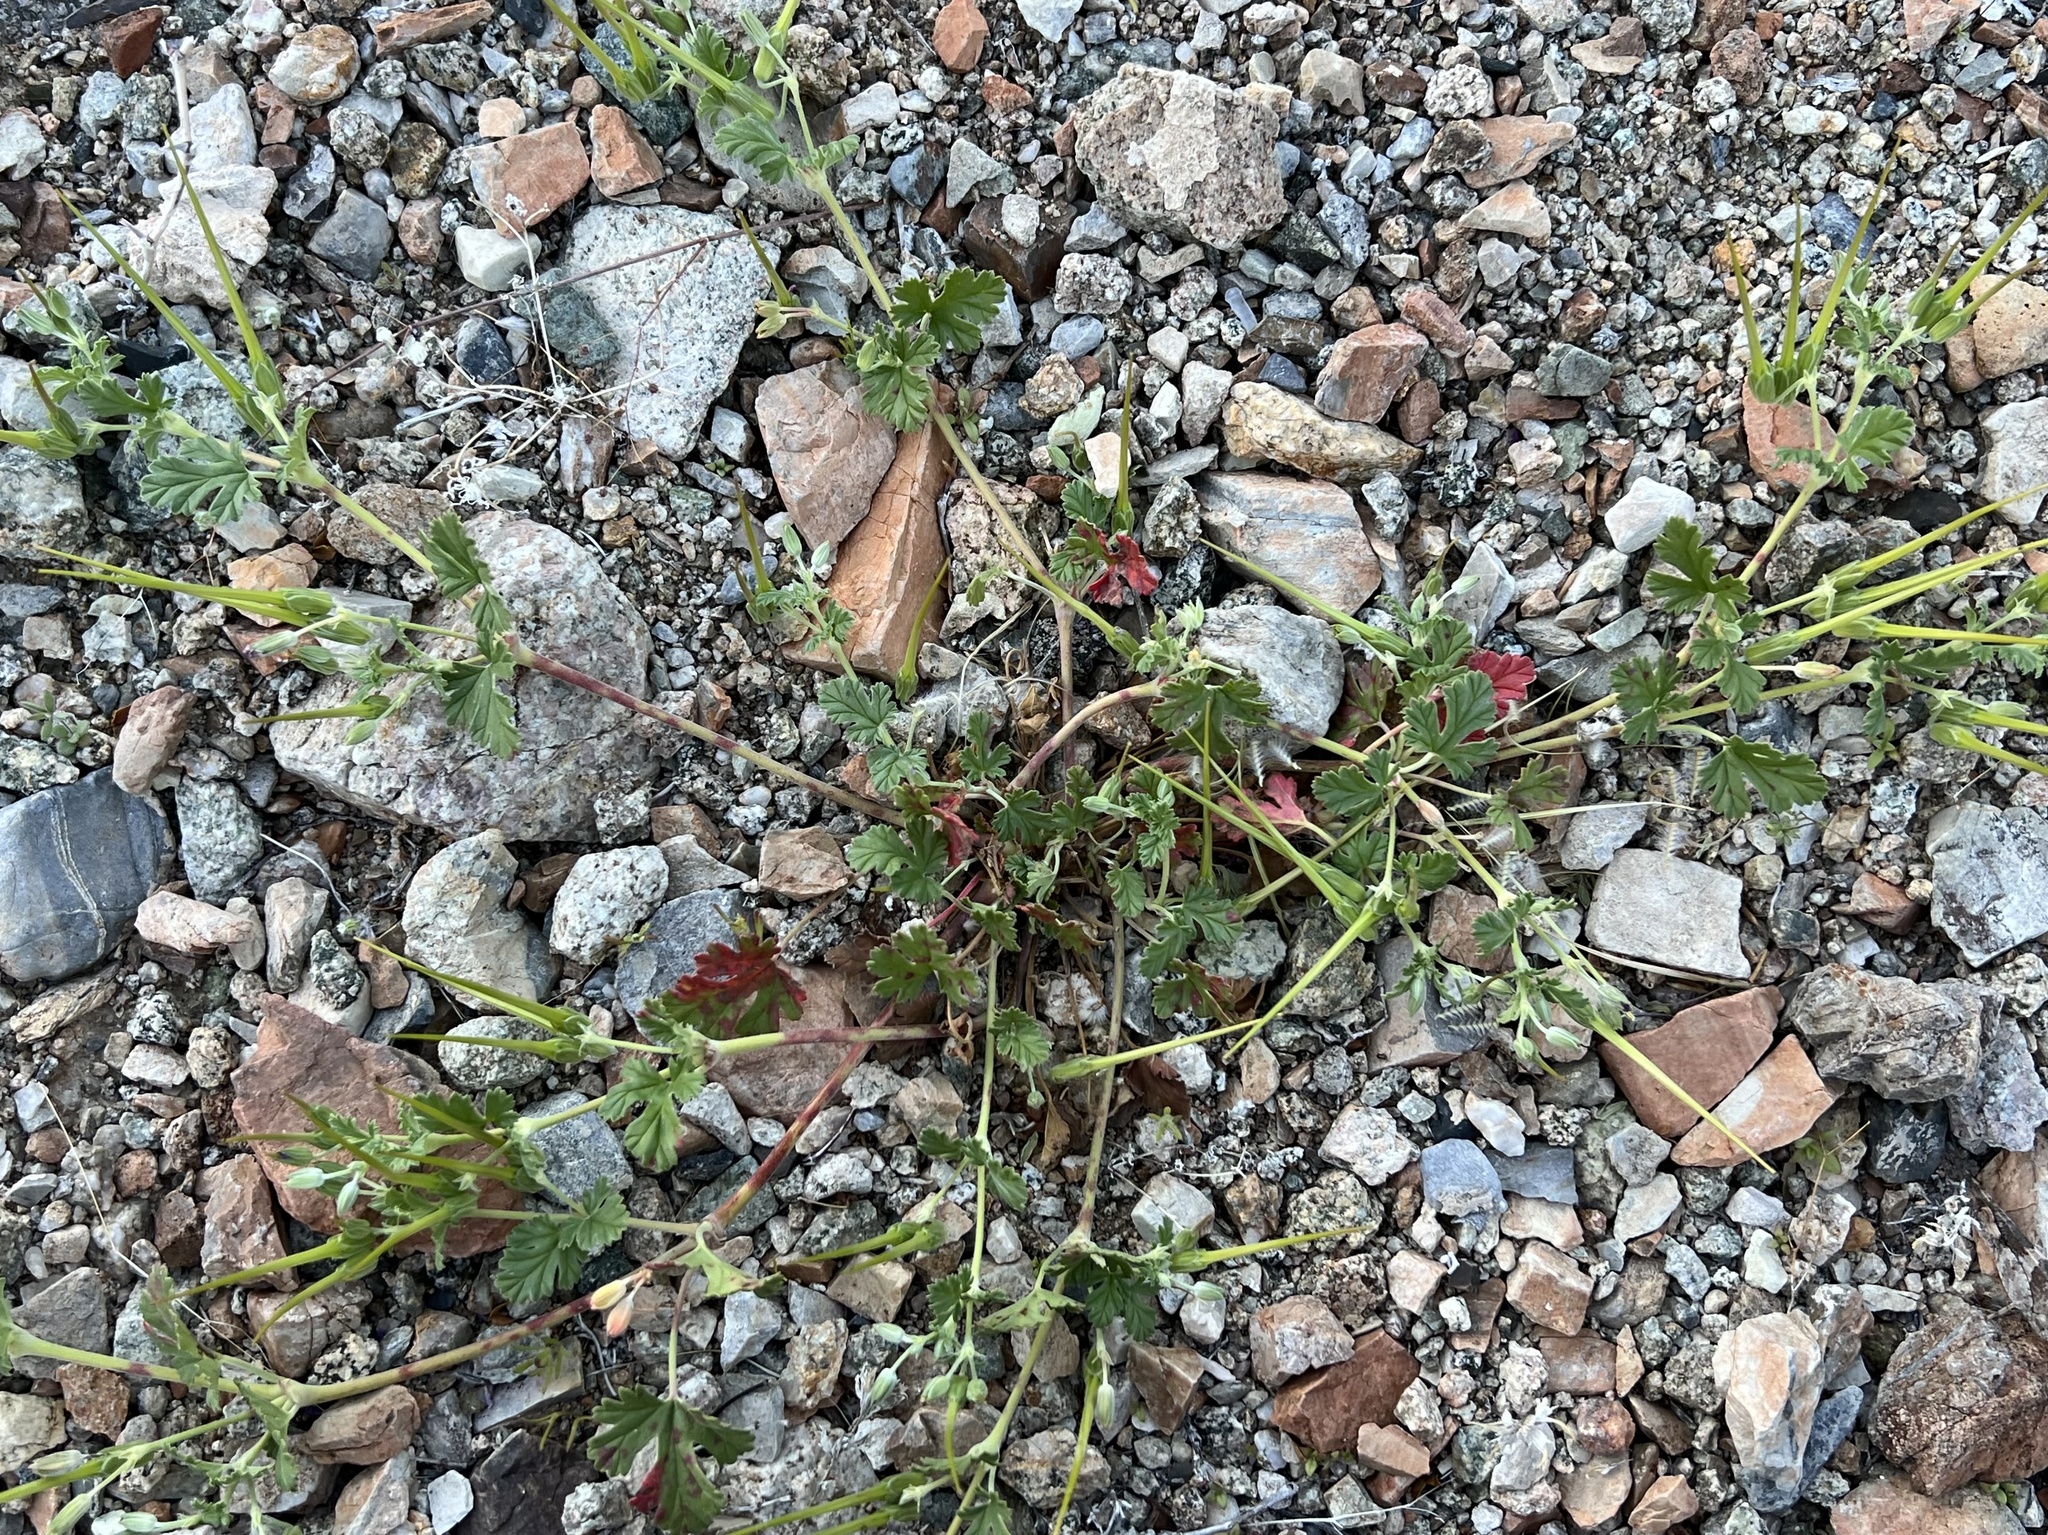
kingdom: Plantae
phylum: Tracheophyta
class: Magnoliopsida
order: Geraniales
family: Geraniaceae
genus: Erodium
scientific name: Erodium texanum
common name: Texas stork's-bill
